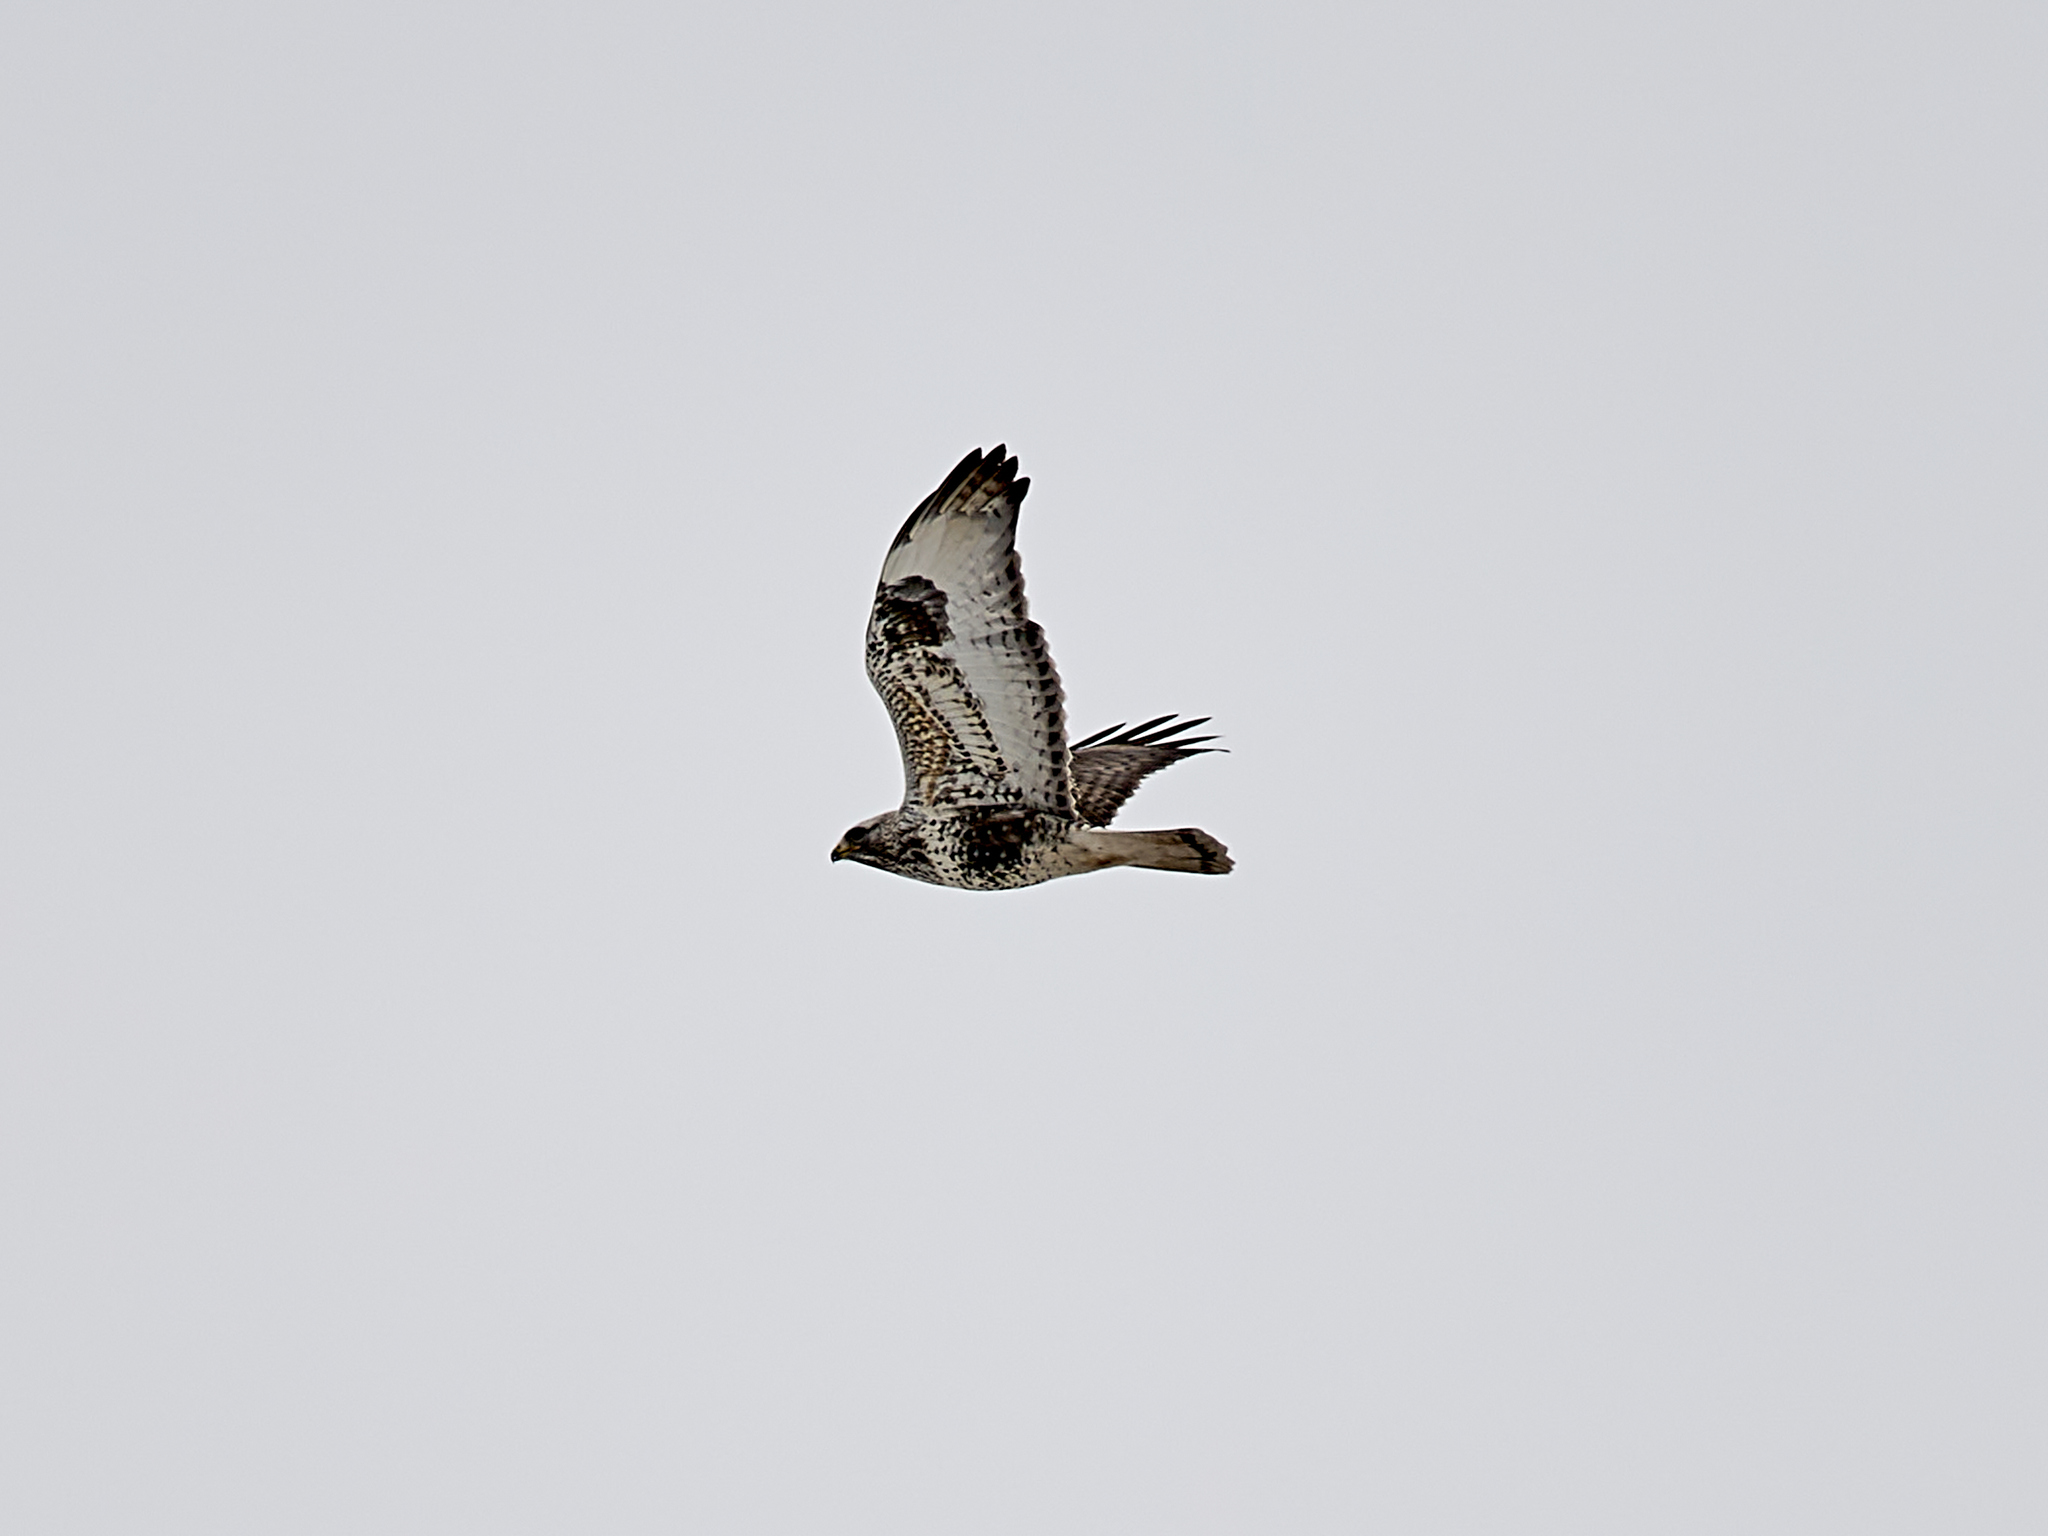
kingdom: Animalia
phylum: Chordata
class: Aves
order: Accipitriformes
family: Accipitridae
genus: Buteo
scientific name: Buteo lagopus
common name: Rough-legged buzzard
